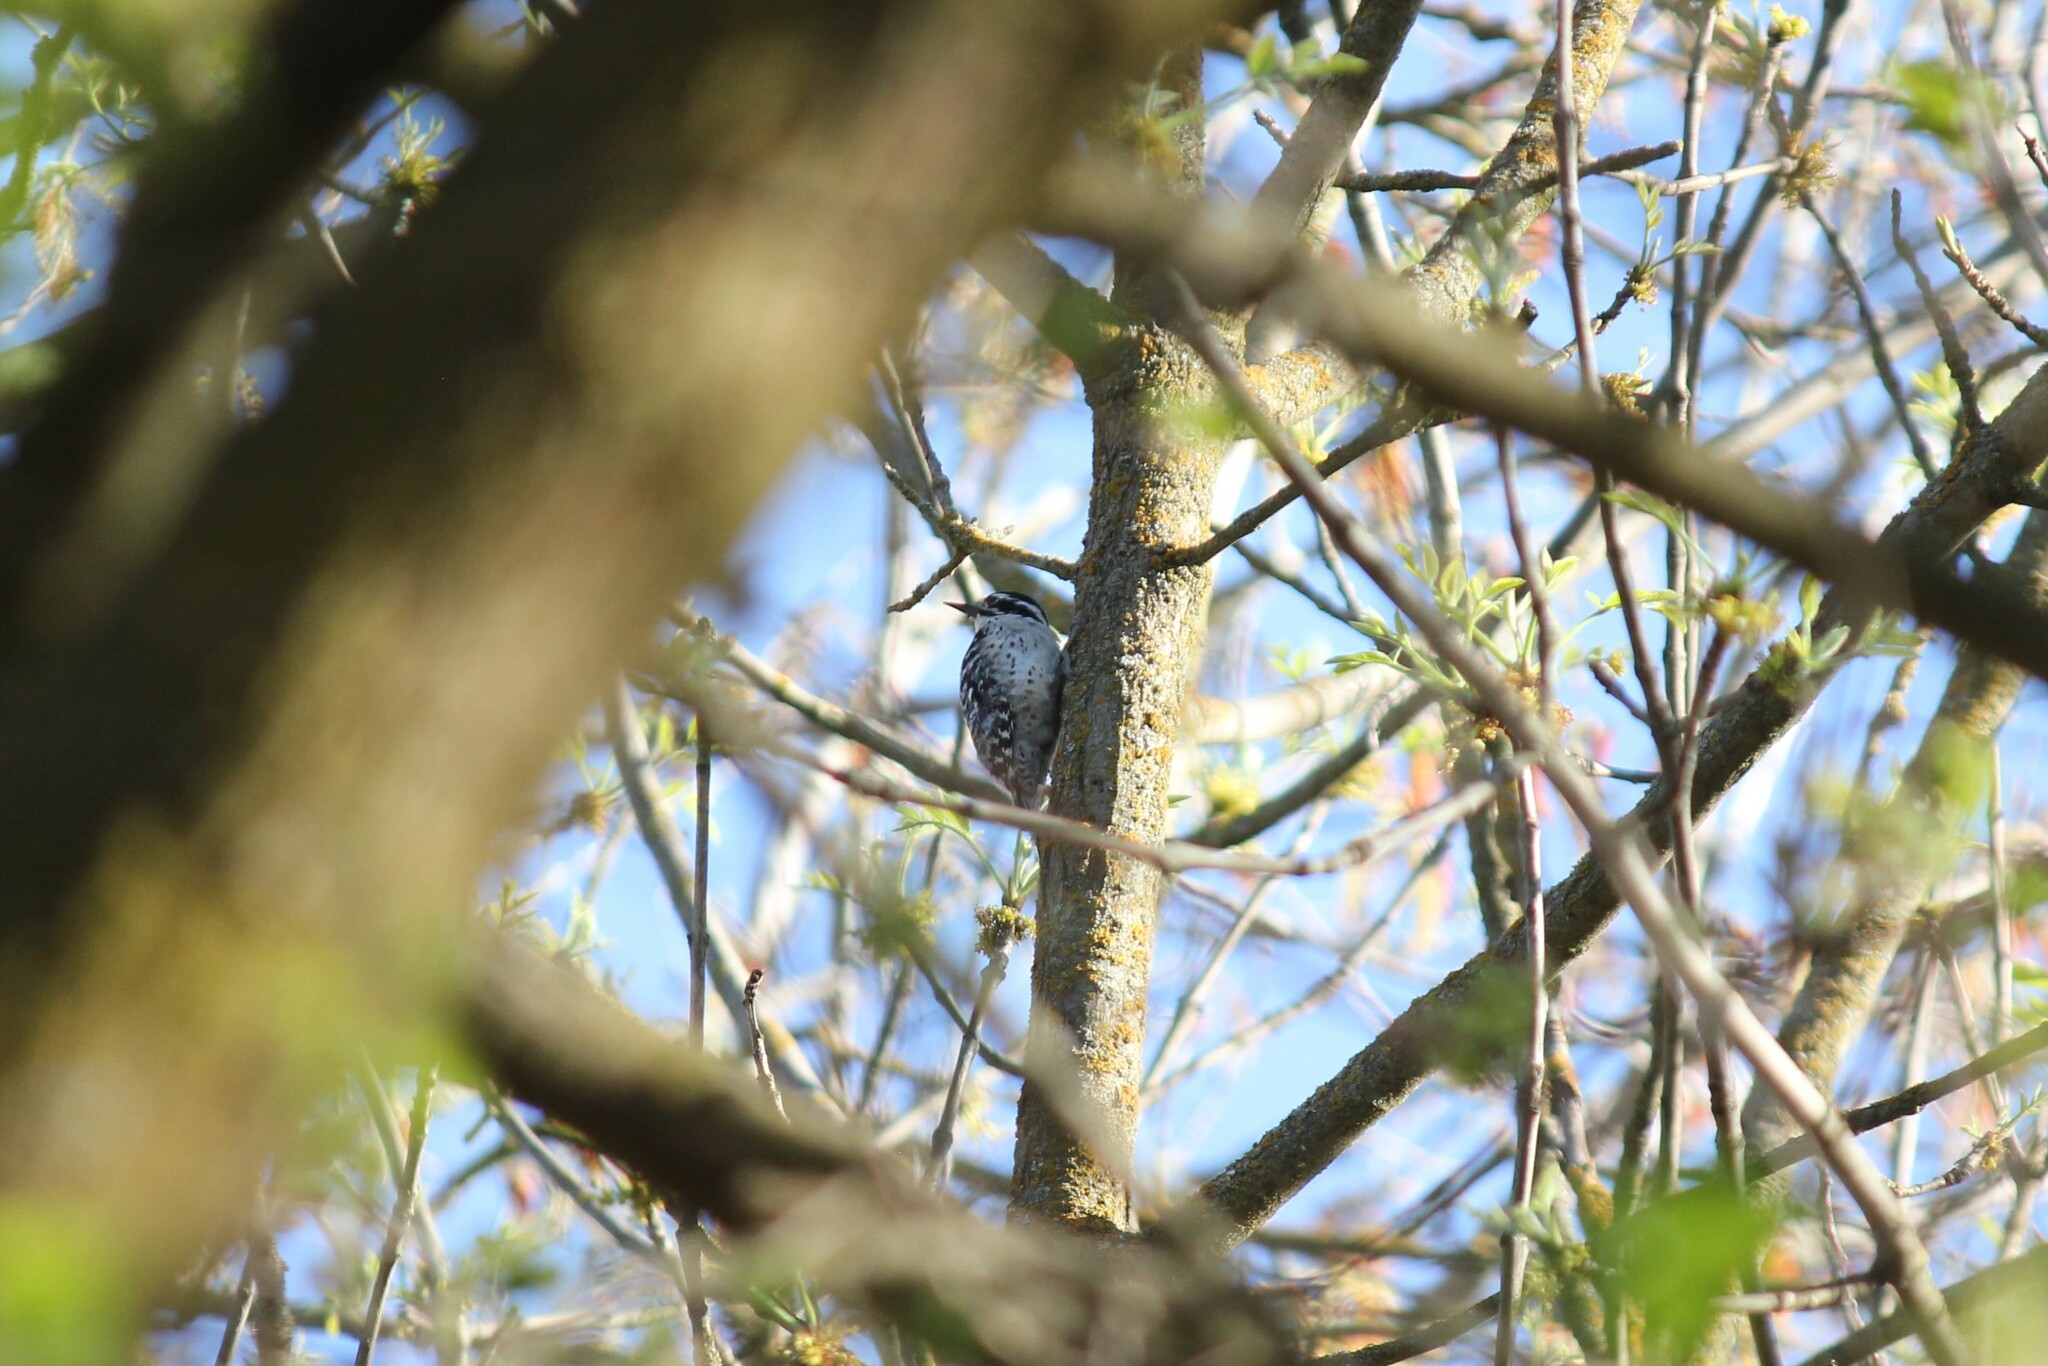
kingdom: Animalia
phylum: Chordata
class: Aves
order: Piciformes
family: Picidae
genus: Dryobates
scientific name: Dryobates nuttallii
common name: Nuttall's woodpecker
